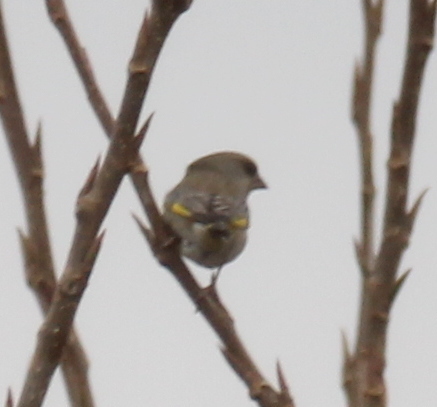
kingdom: Plantae
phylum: Tracheophyta
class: Liliopsida
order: Poales
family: Poaceae
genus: Chloris
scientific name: Chloris chloris
